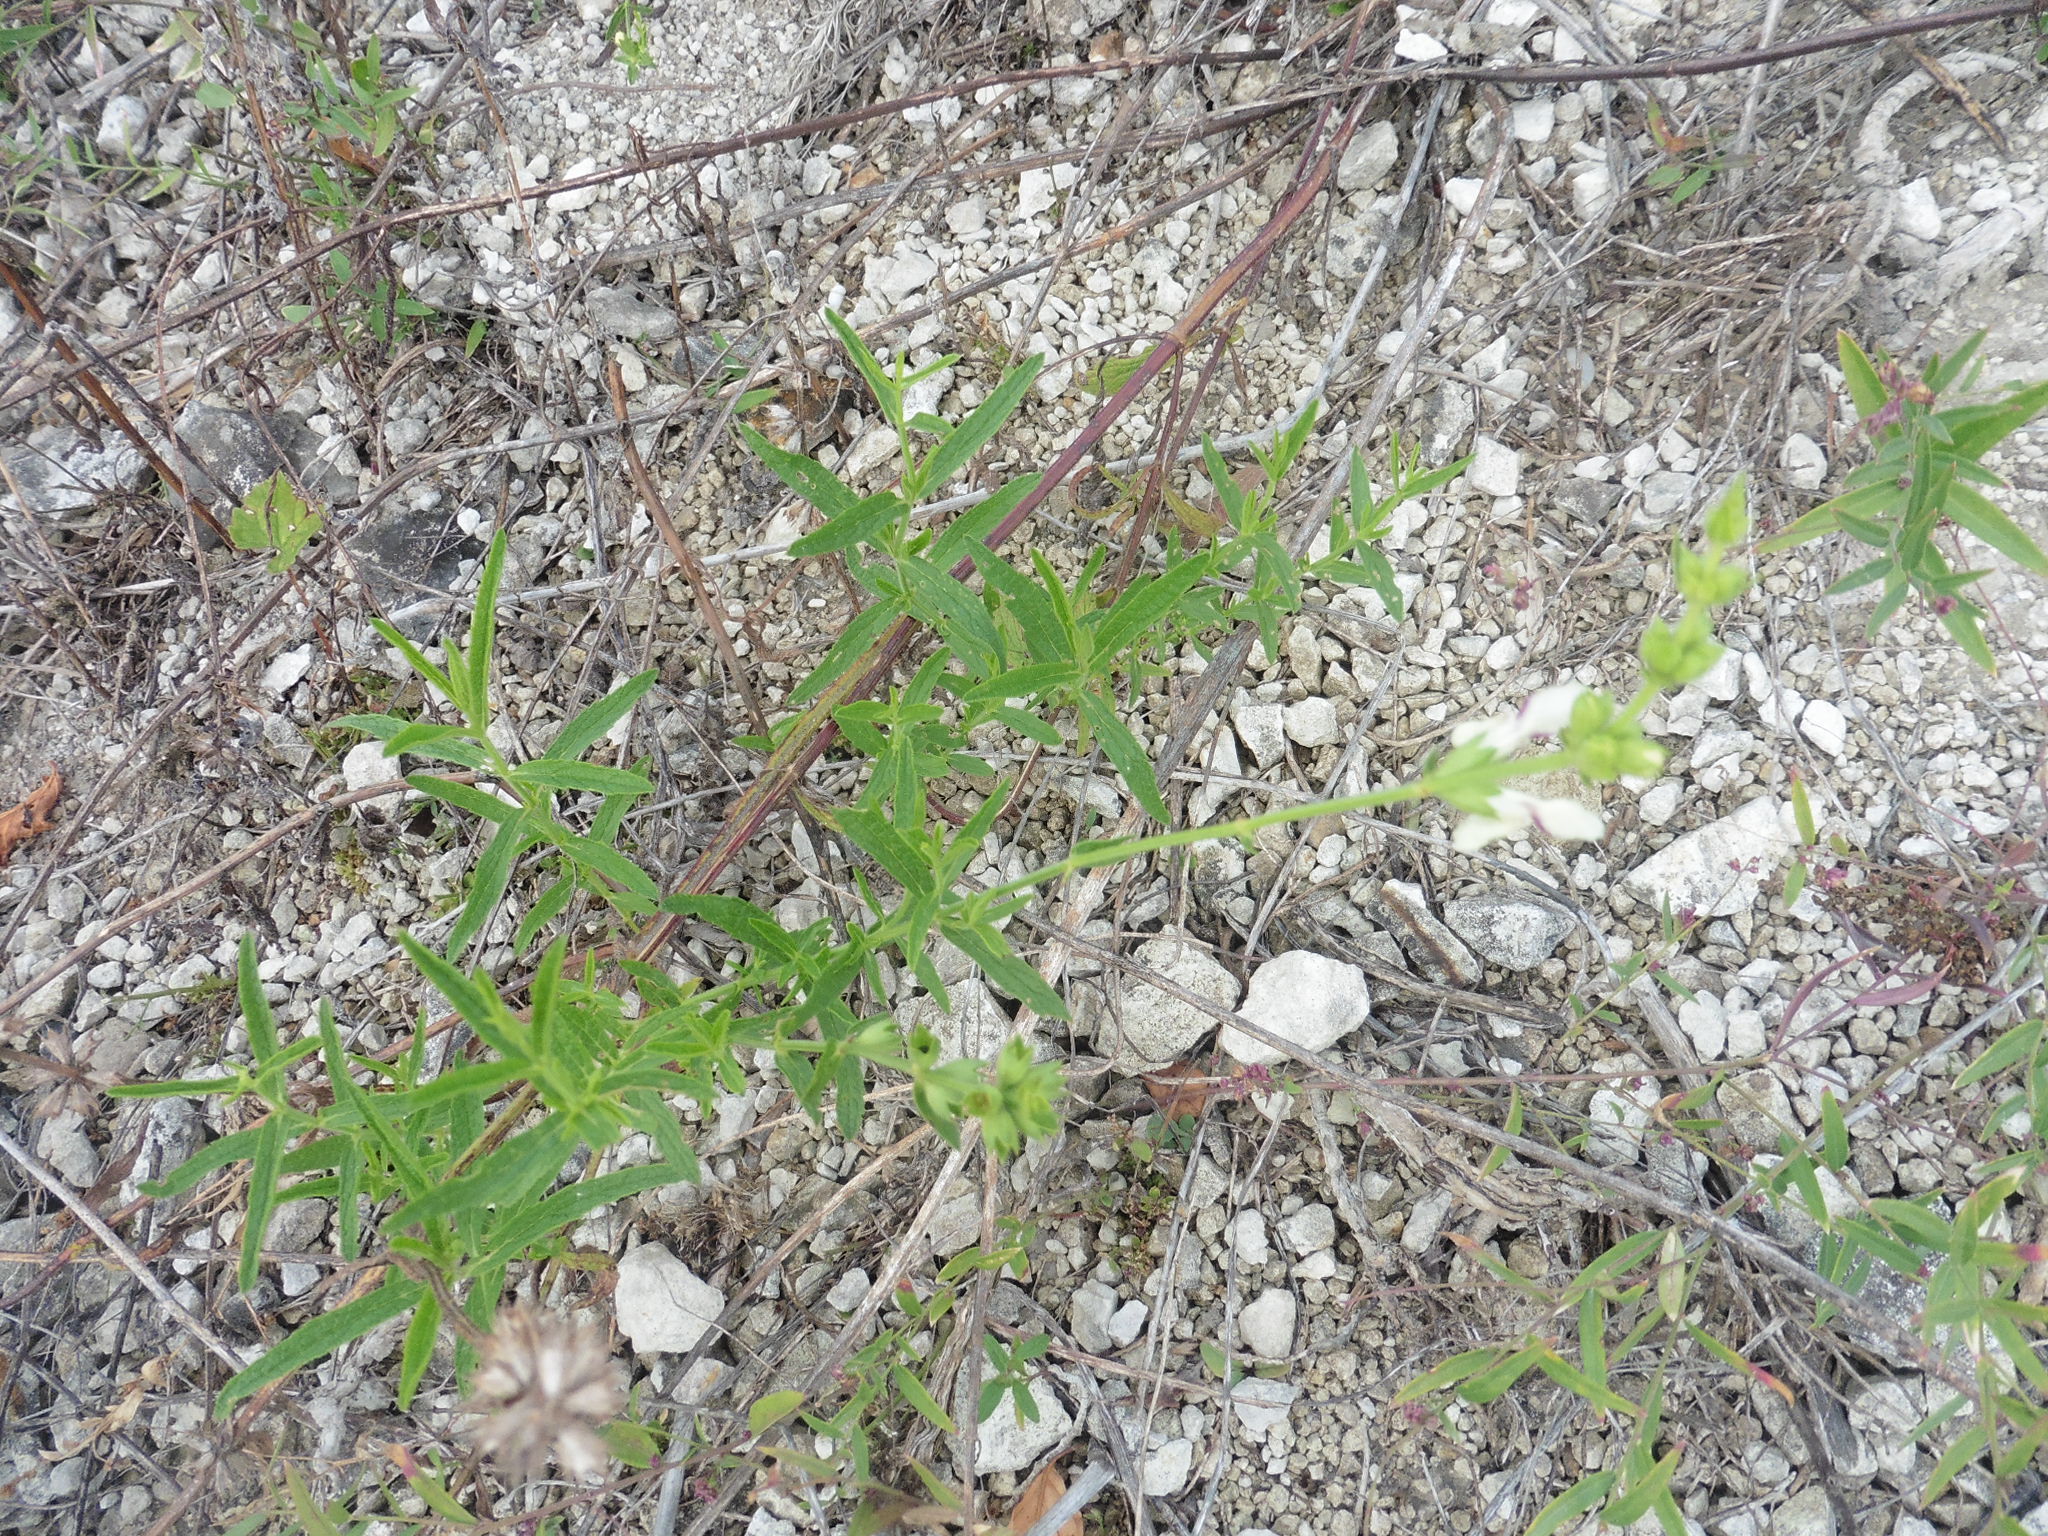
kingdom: Plantae
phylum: Tracheophyta
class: Magnoliopsida
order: Lamiales
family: Lamiaceae
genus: Stachys
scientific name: Stachys recta
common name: Perennial yellow-woundwort
